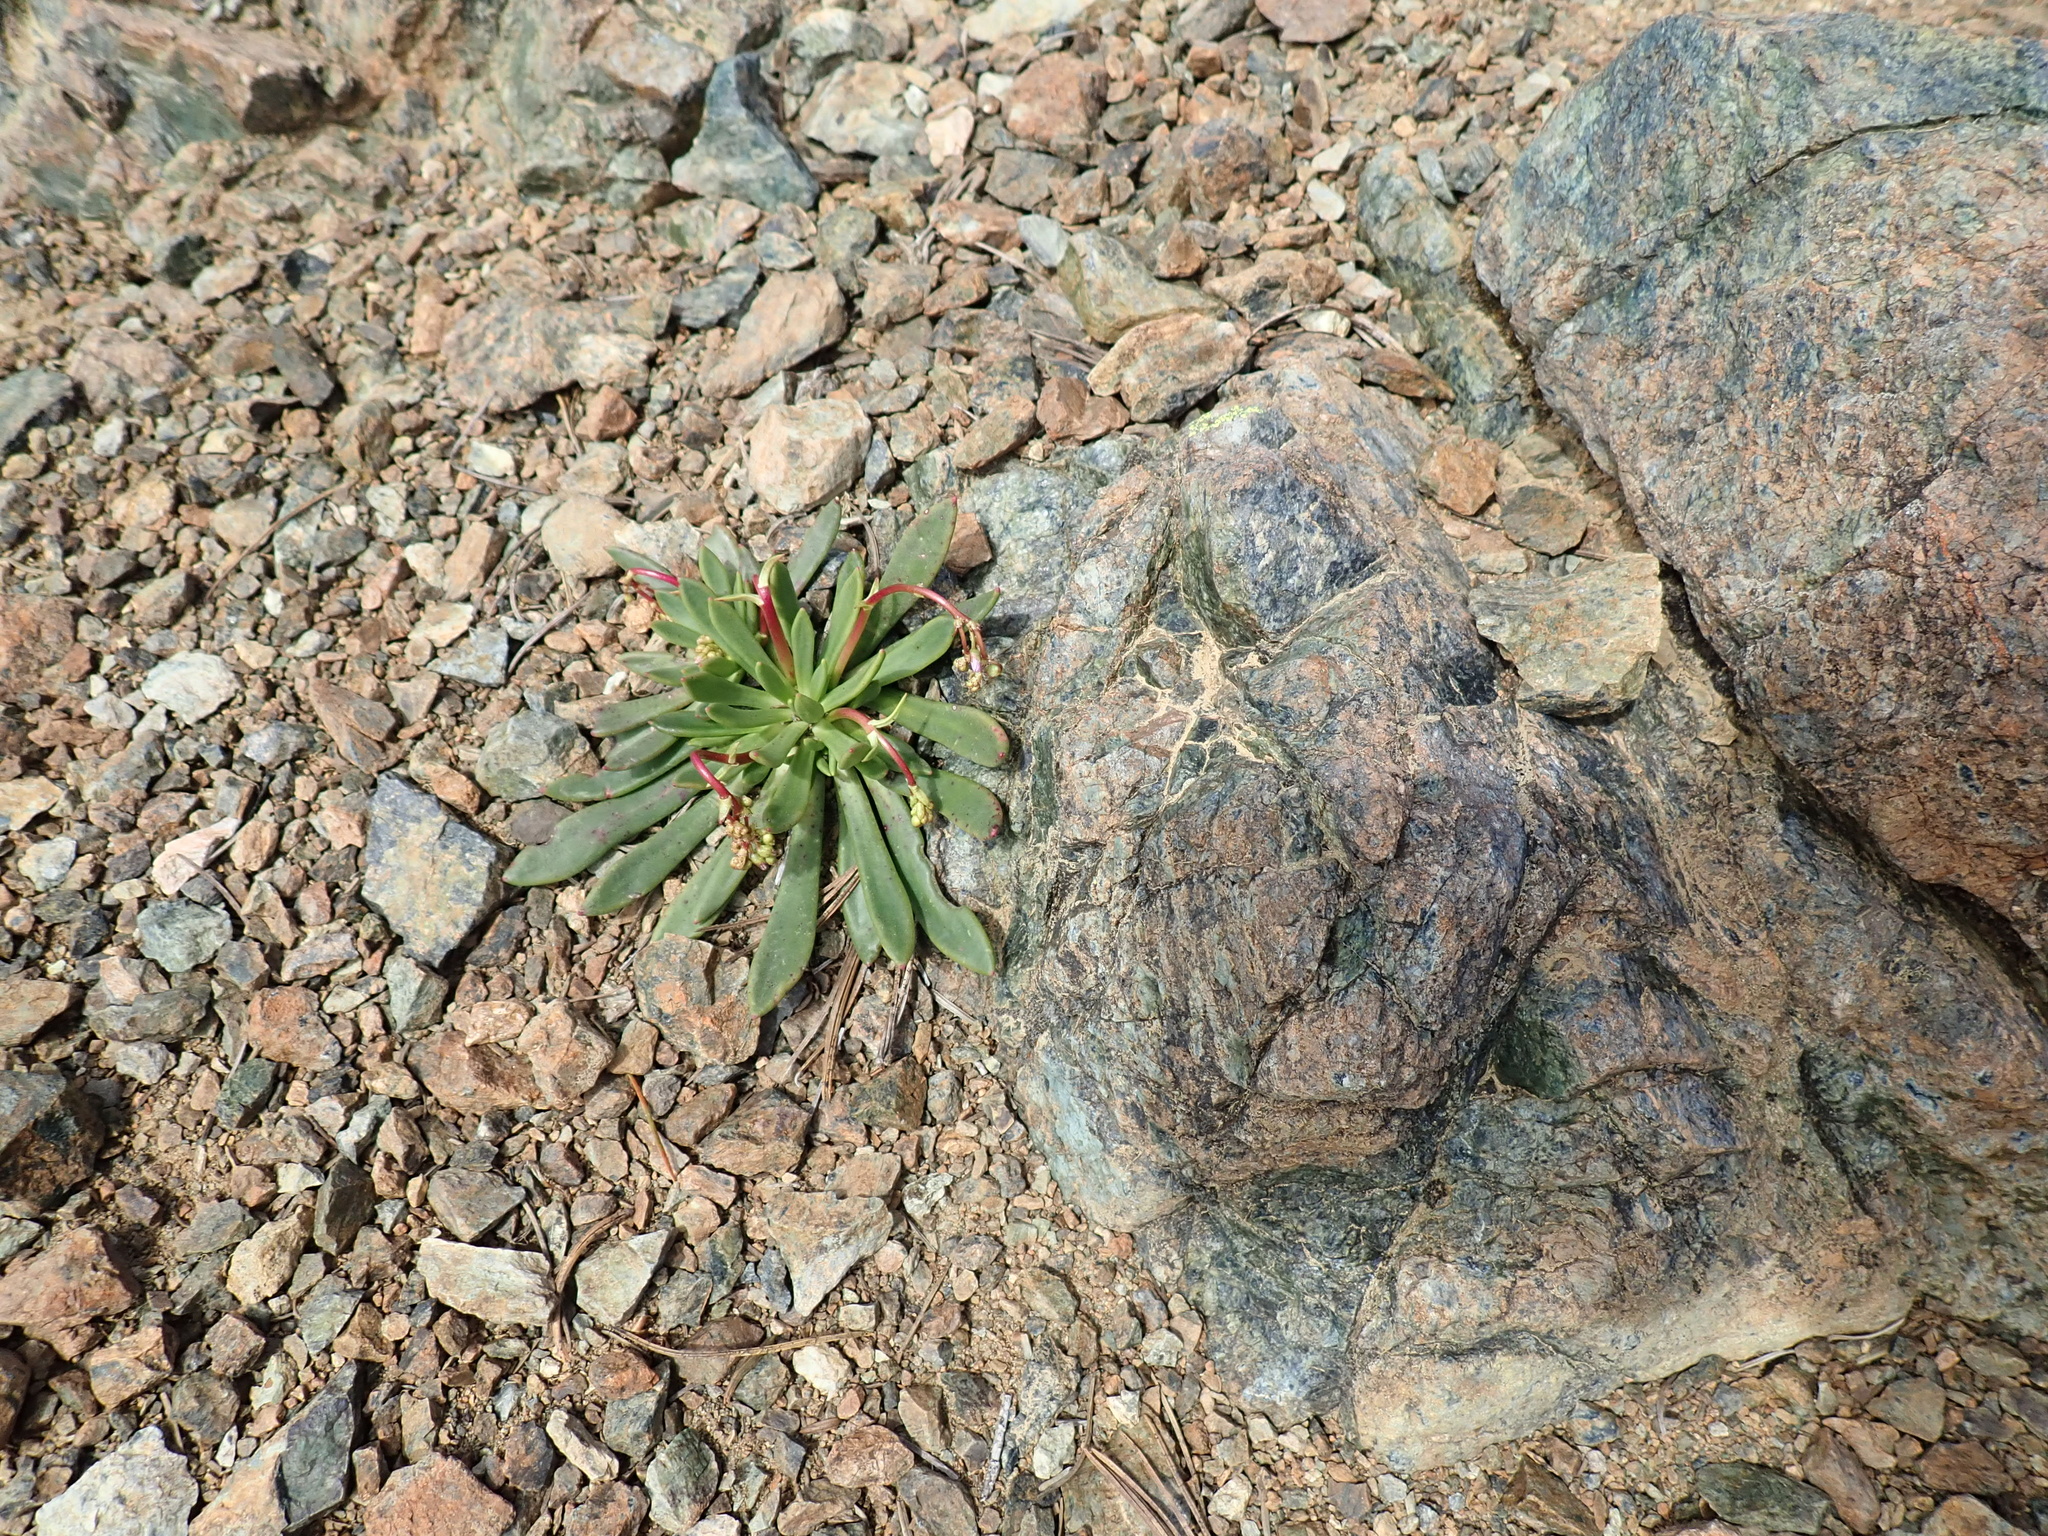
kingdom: Plantae
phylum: Tracheophyta
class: Magnoliopsida
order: Caryophyllales
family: Montiaceae
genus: Lewisia
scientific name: Lewisia columbiana
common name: Columbia lewisia
